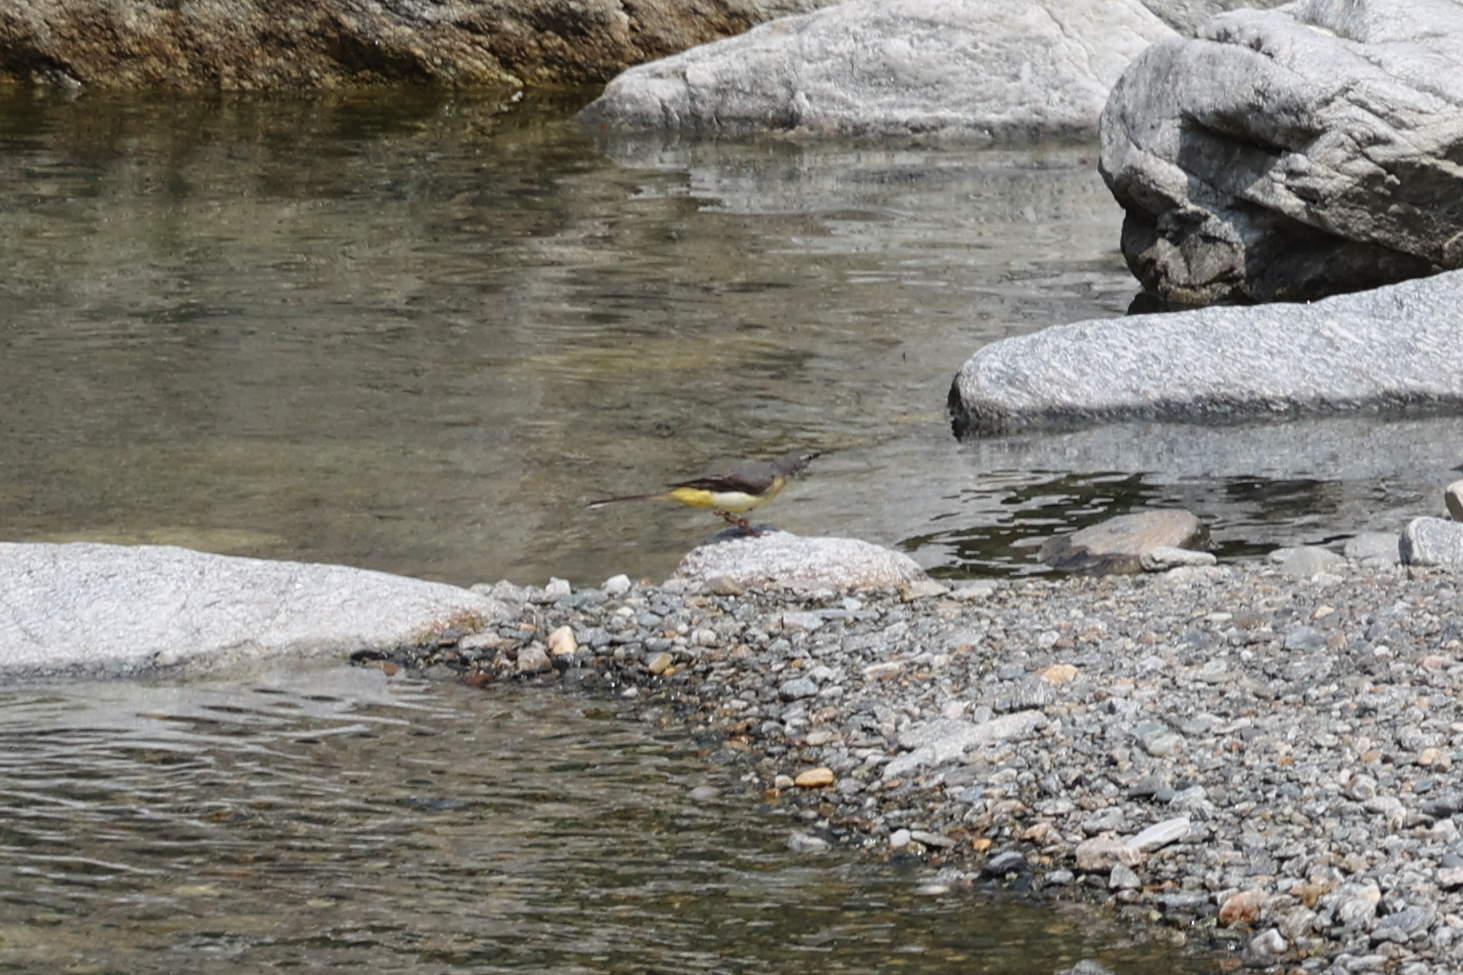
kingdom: Animalia
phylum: Chordata
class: Aves
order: Passeriformes
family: Motacillidae
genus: Motacilla
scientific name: Motacilla cinerea
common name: Grey wagtail
